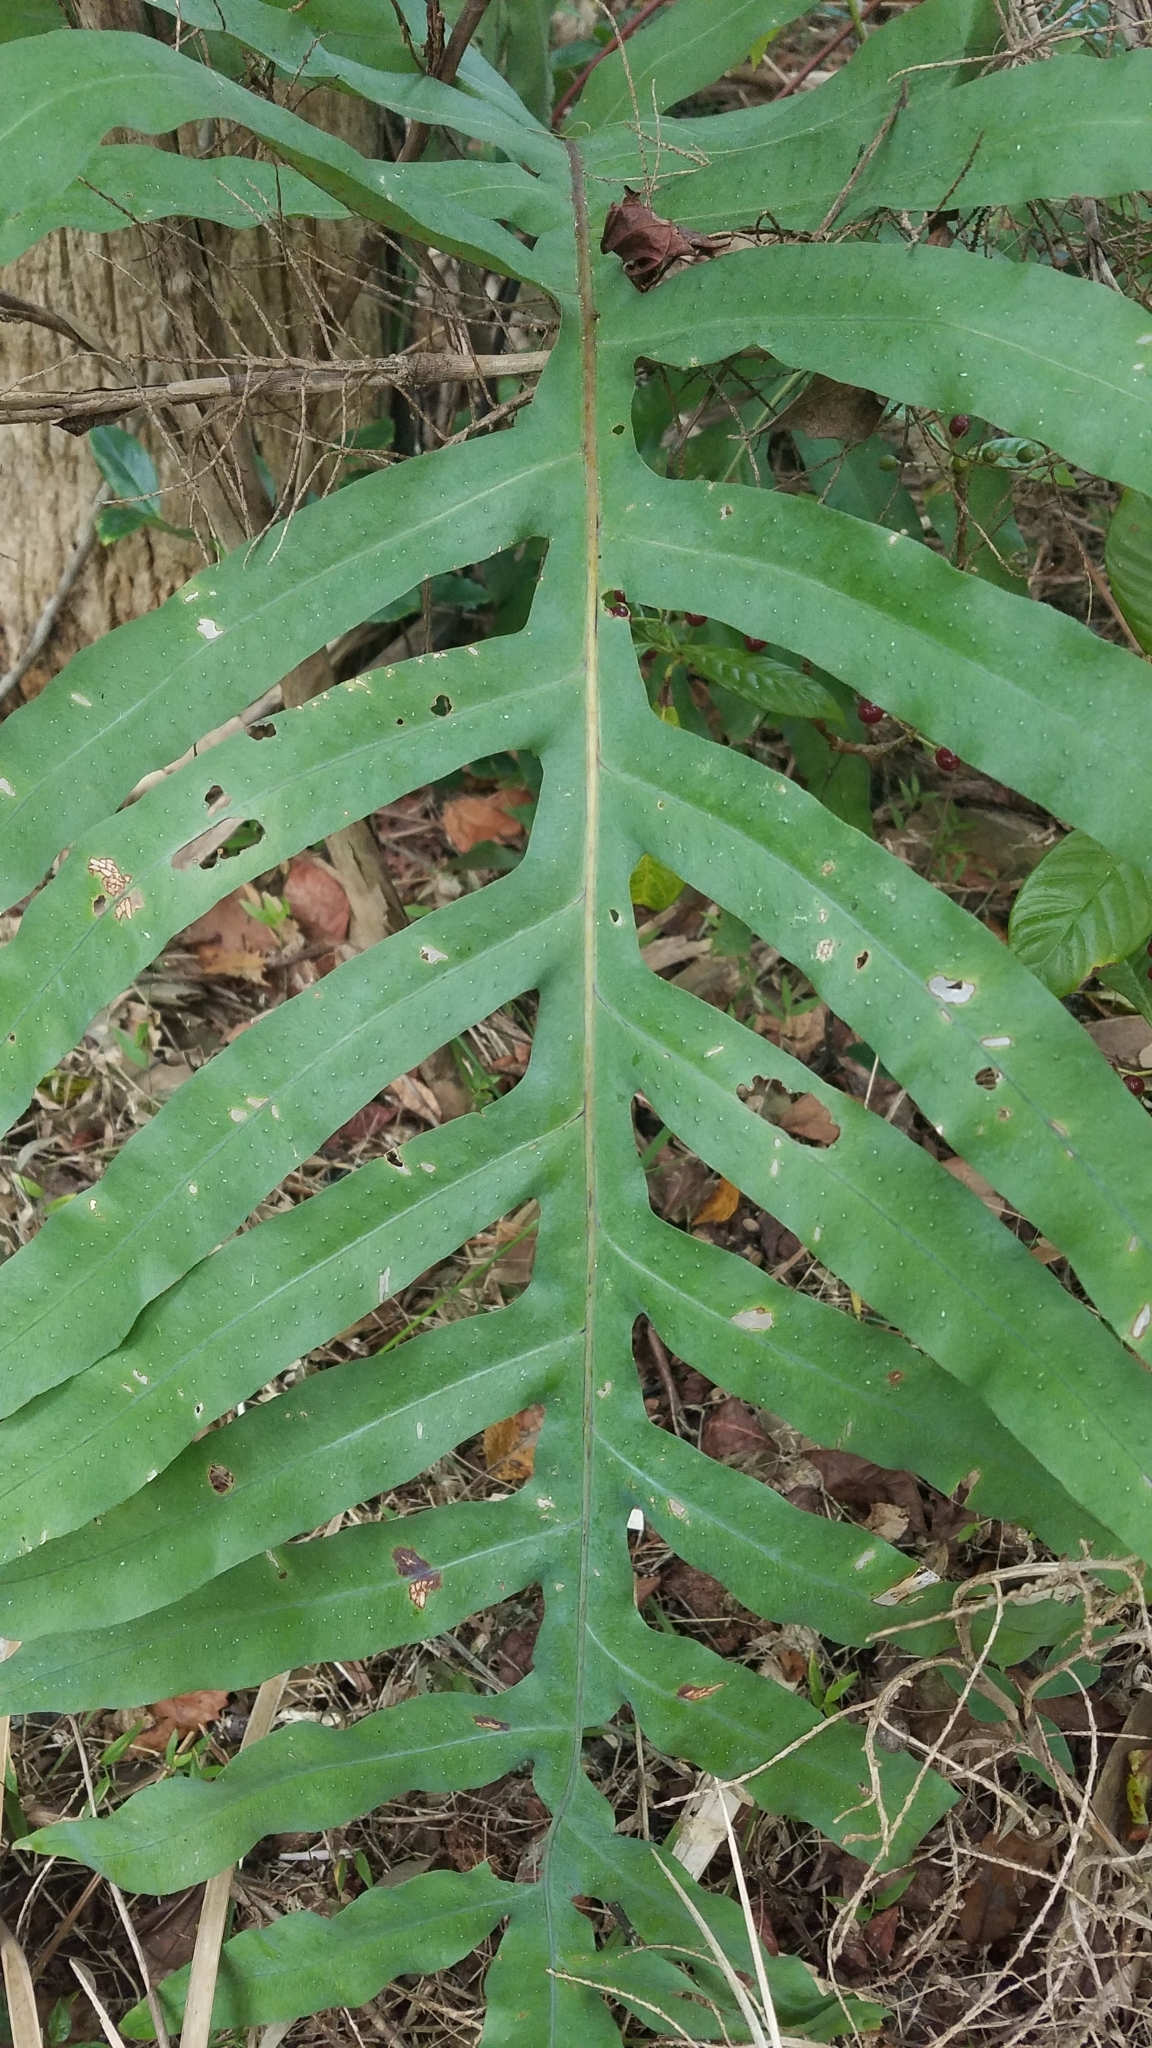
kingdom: Plantae
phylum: Tracheophyta
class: Polypodiopsida
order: Polypodiales
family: Polypodiaceae
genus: Phlebodium
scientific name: Phlebodium aureum
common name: Gold-foot fern
